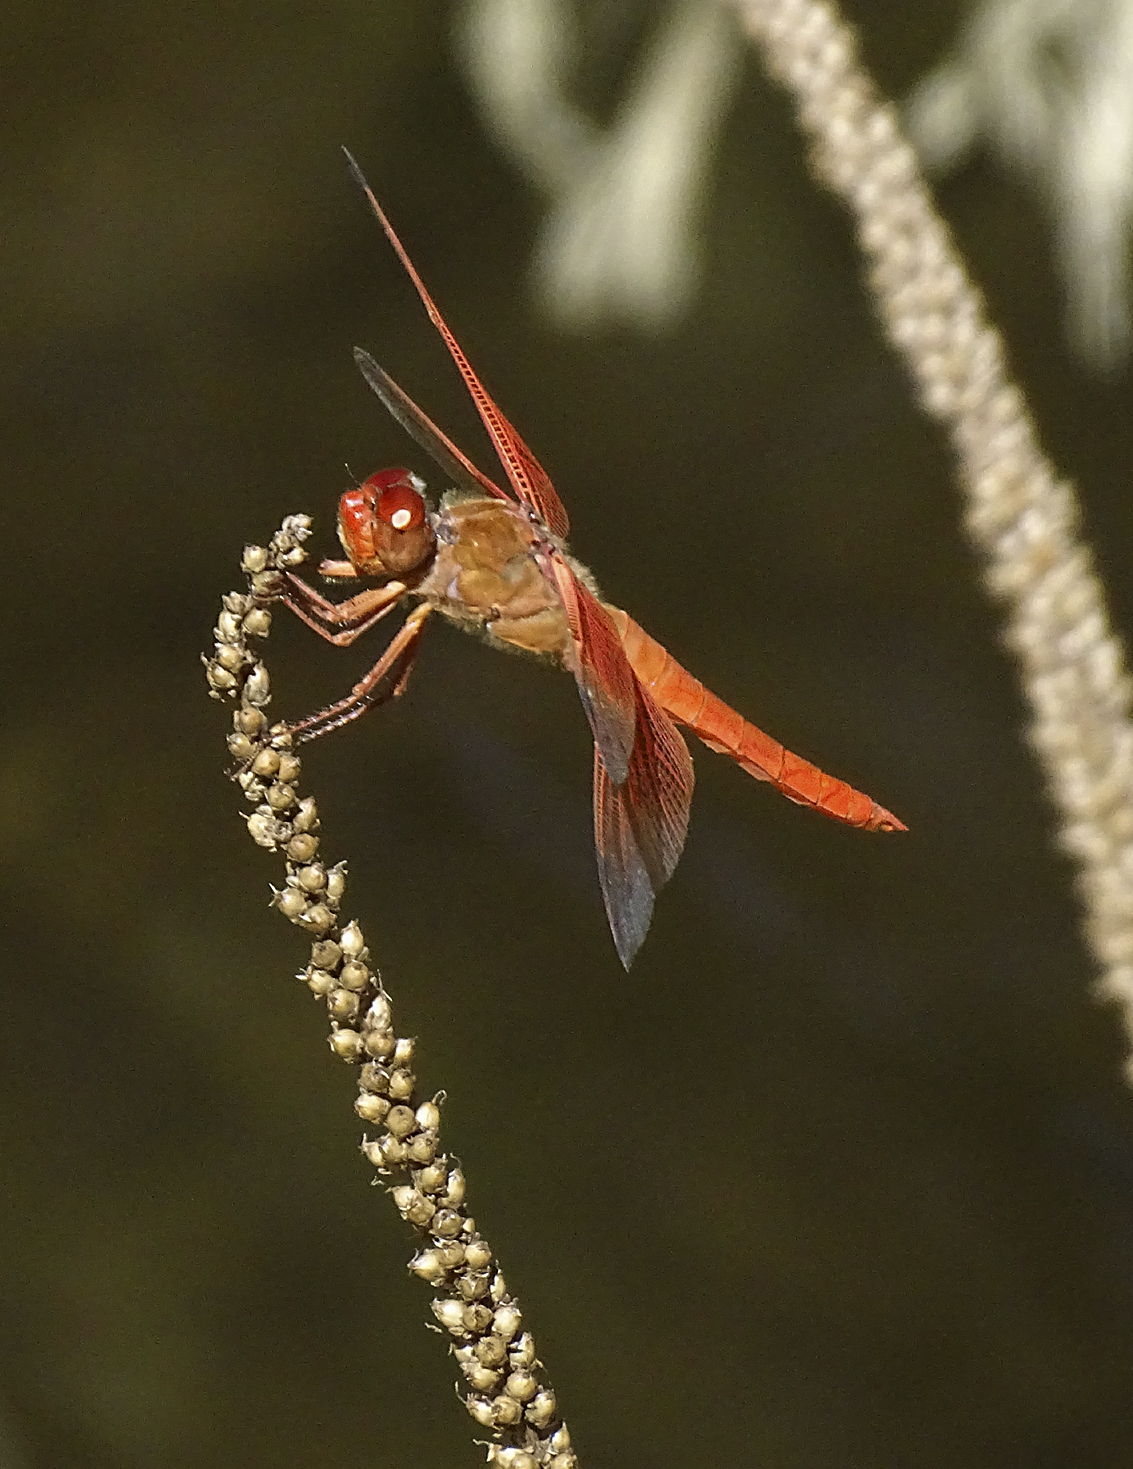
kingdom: Animalia
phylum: Arthropoda
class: Insecta
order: Odonata
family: Libellulidae
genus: Libellula
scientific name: Libellula saturata
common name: Flame skimmer
